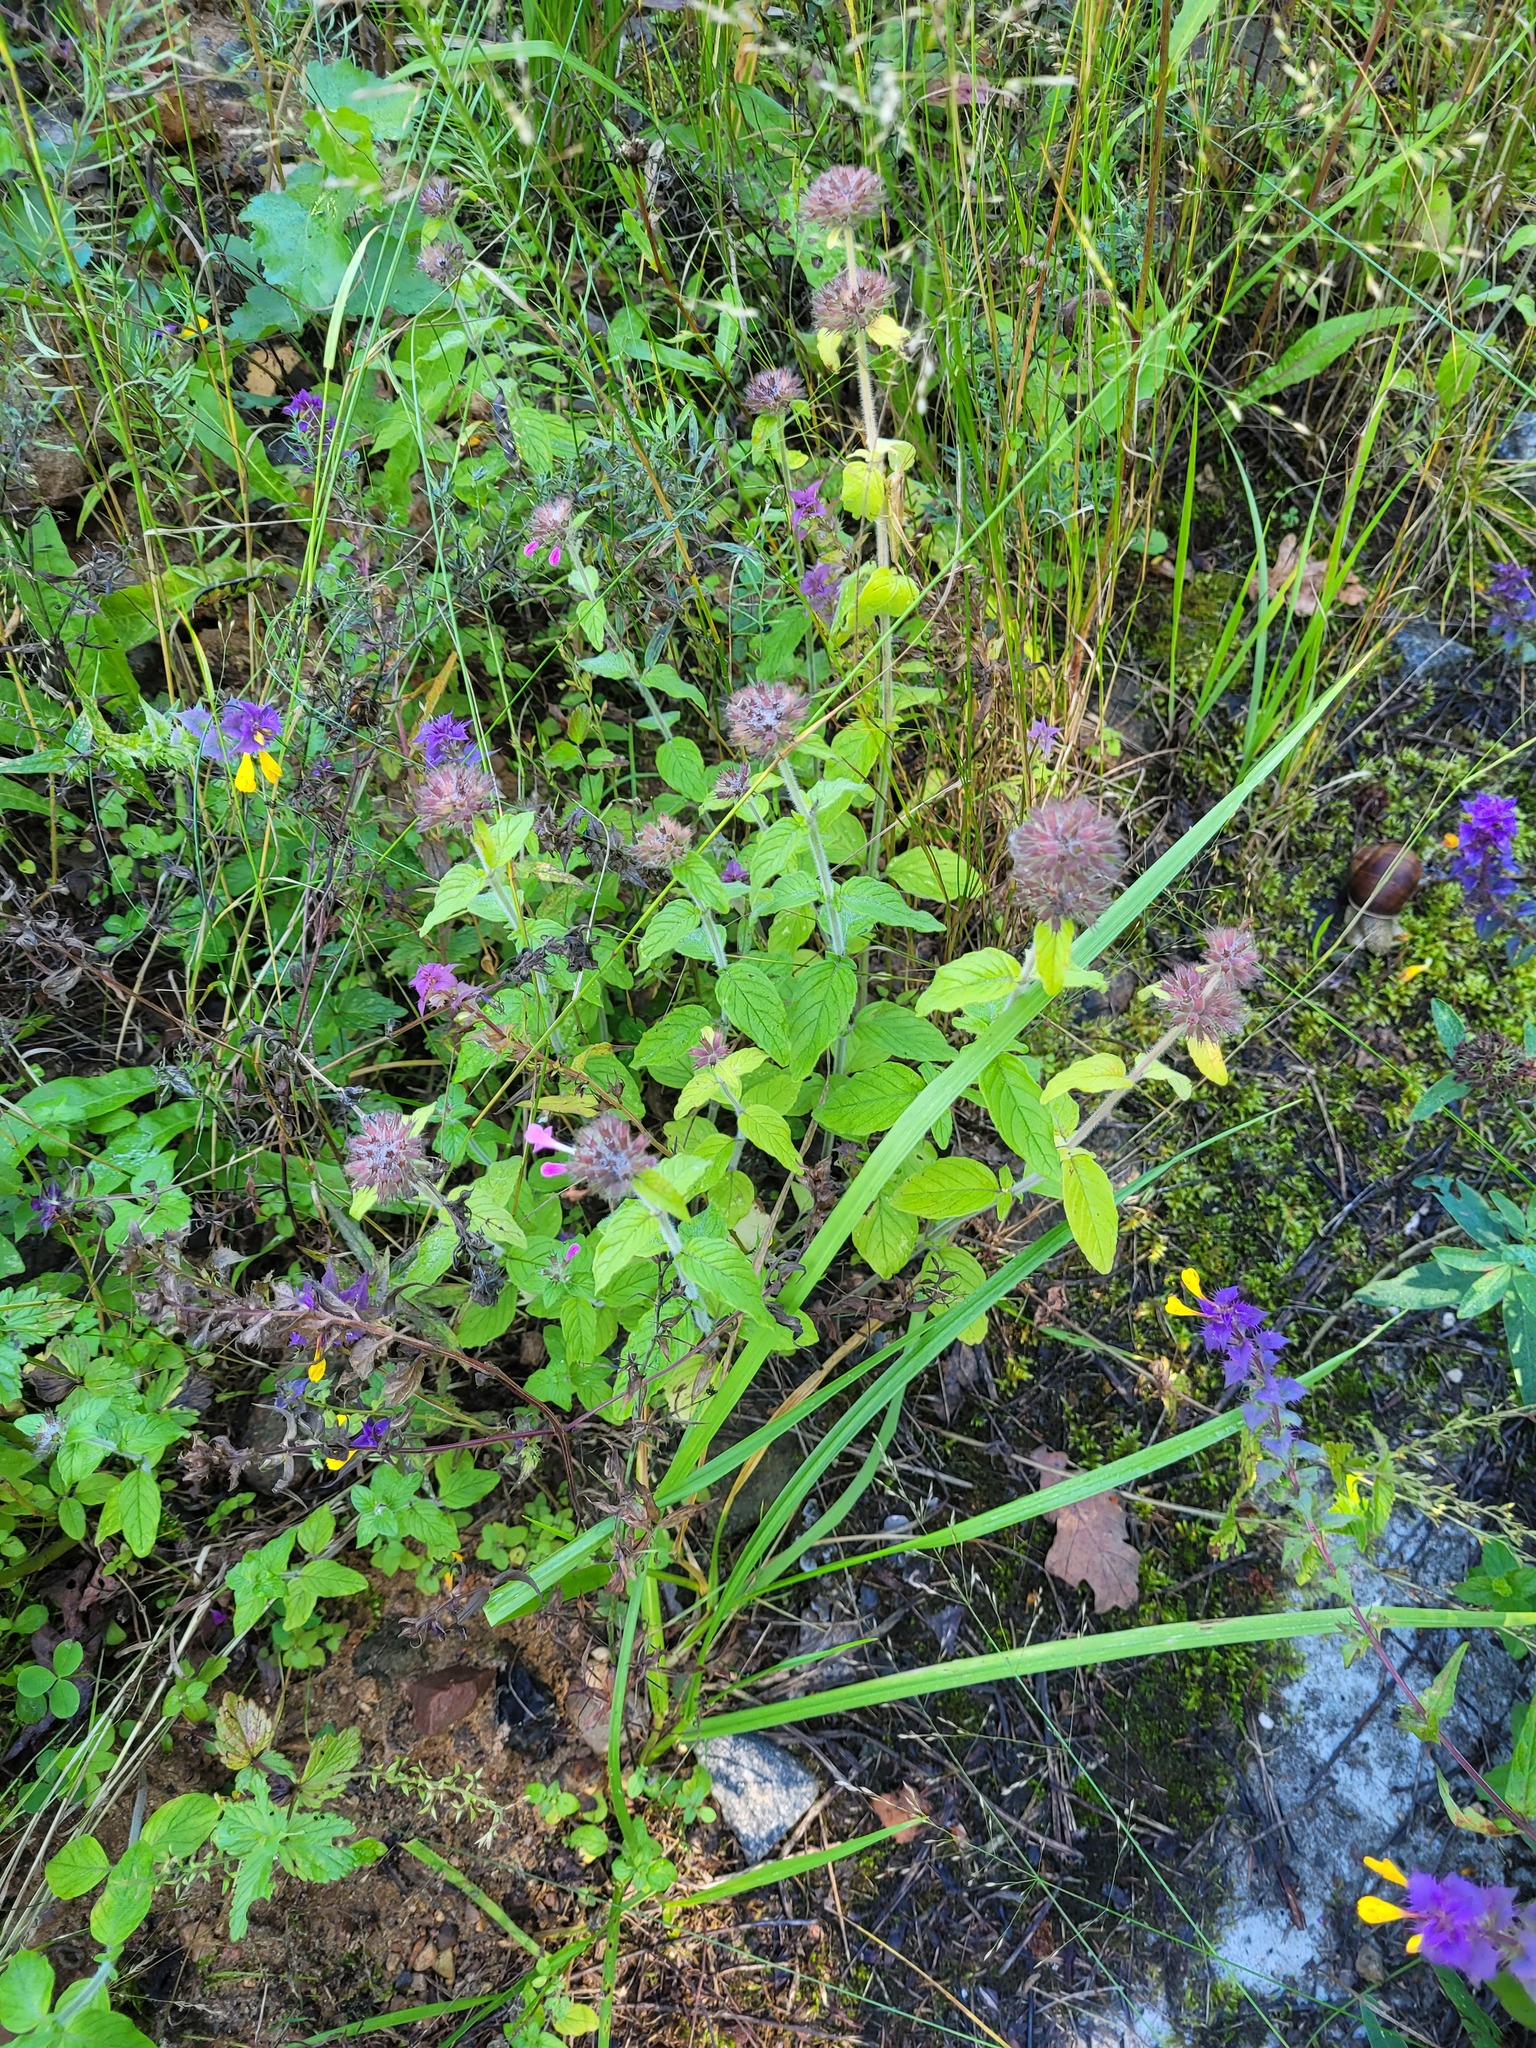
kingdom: Plantae
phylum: Tracheophyta
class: Magnoliopsida
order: Lamiales
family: Lamiaceae
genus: Clinopodium
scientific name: Clinopodium vulgare
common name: Wild basil
